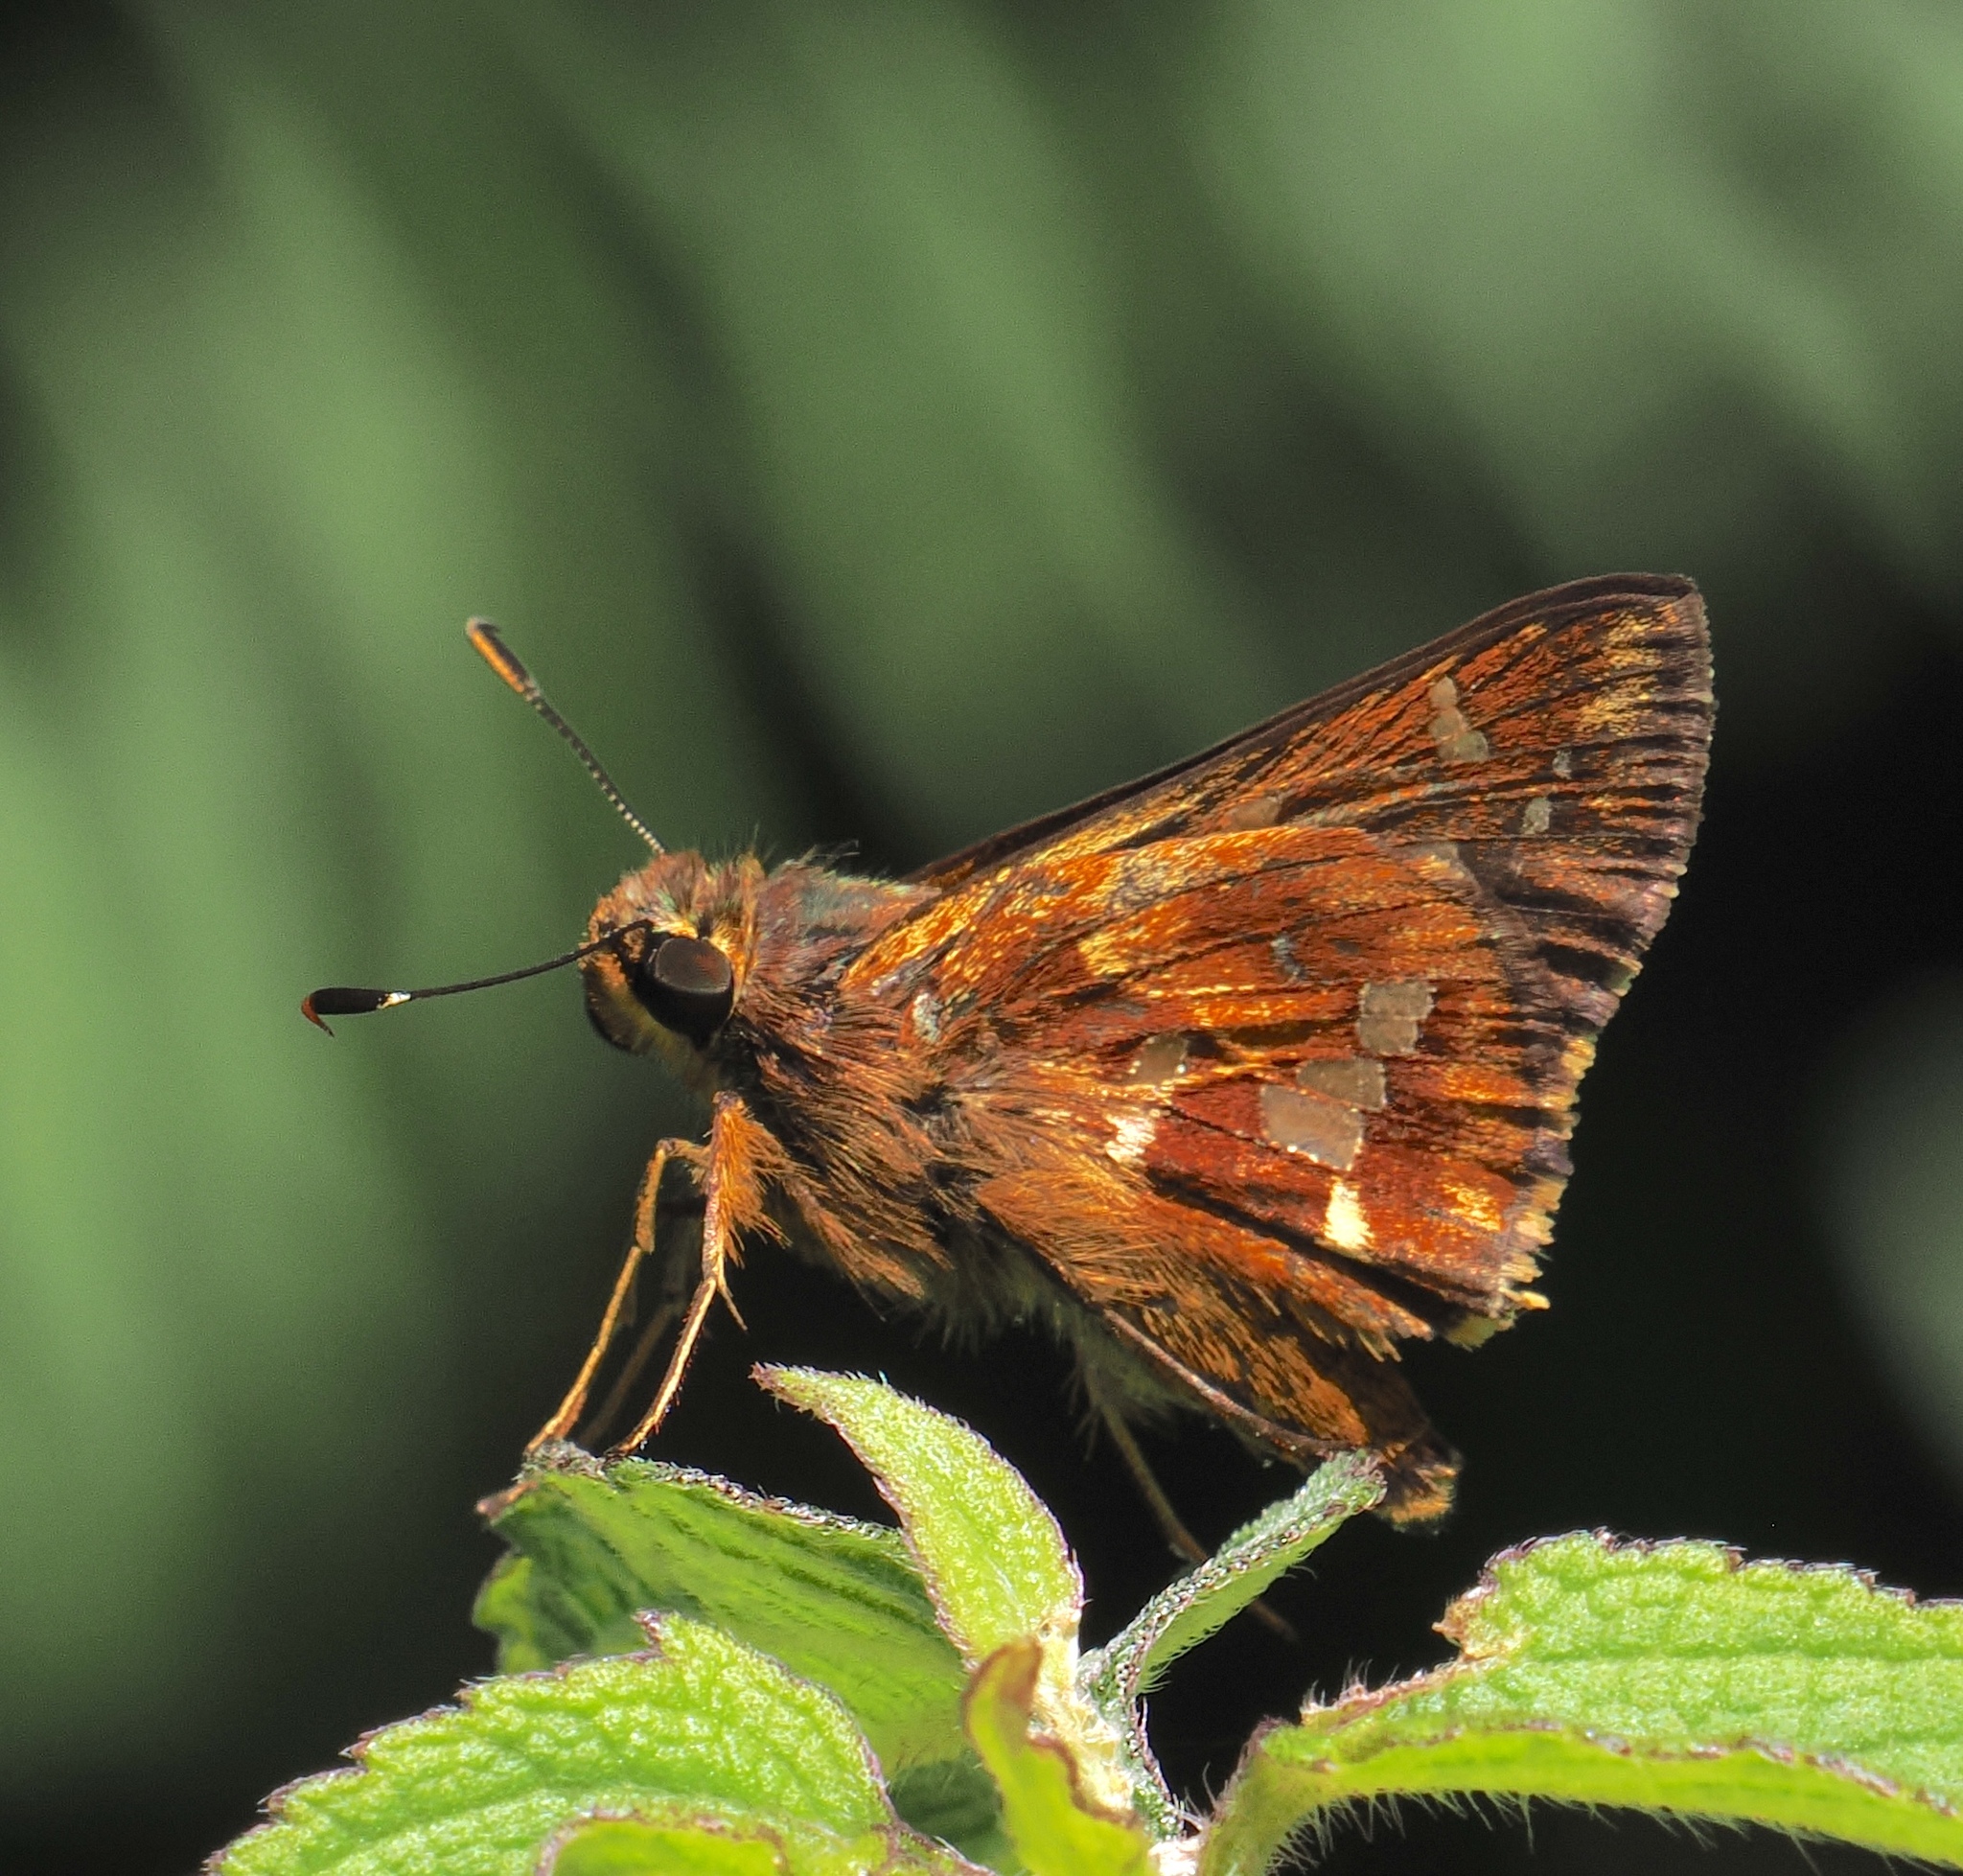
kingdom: Animalia
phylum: Arthropoda
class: Insecta
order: Lepidoptera
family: Hesperiidae
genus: Thespieus
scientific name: Thespieus abativa
